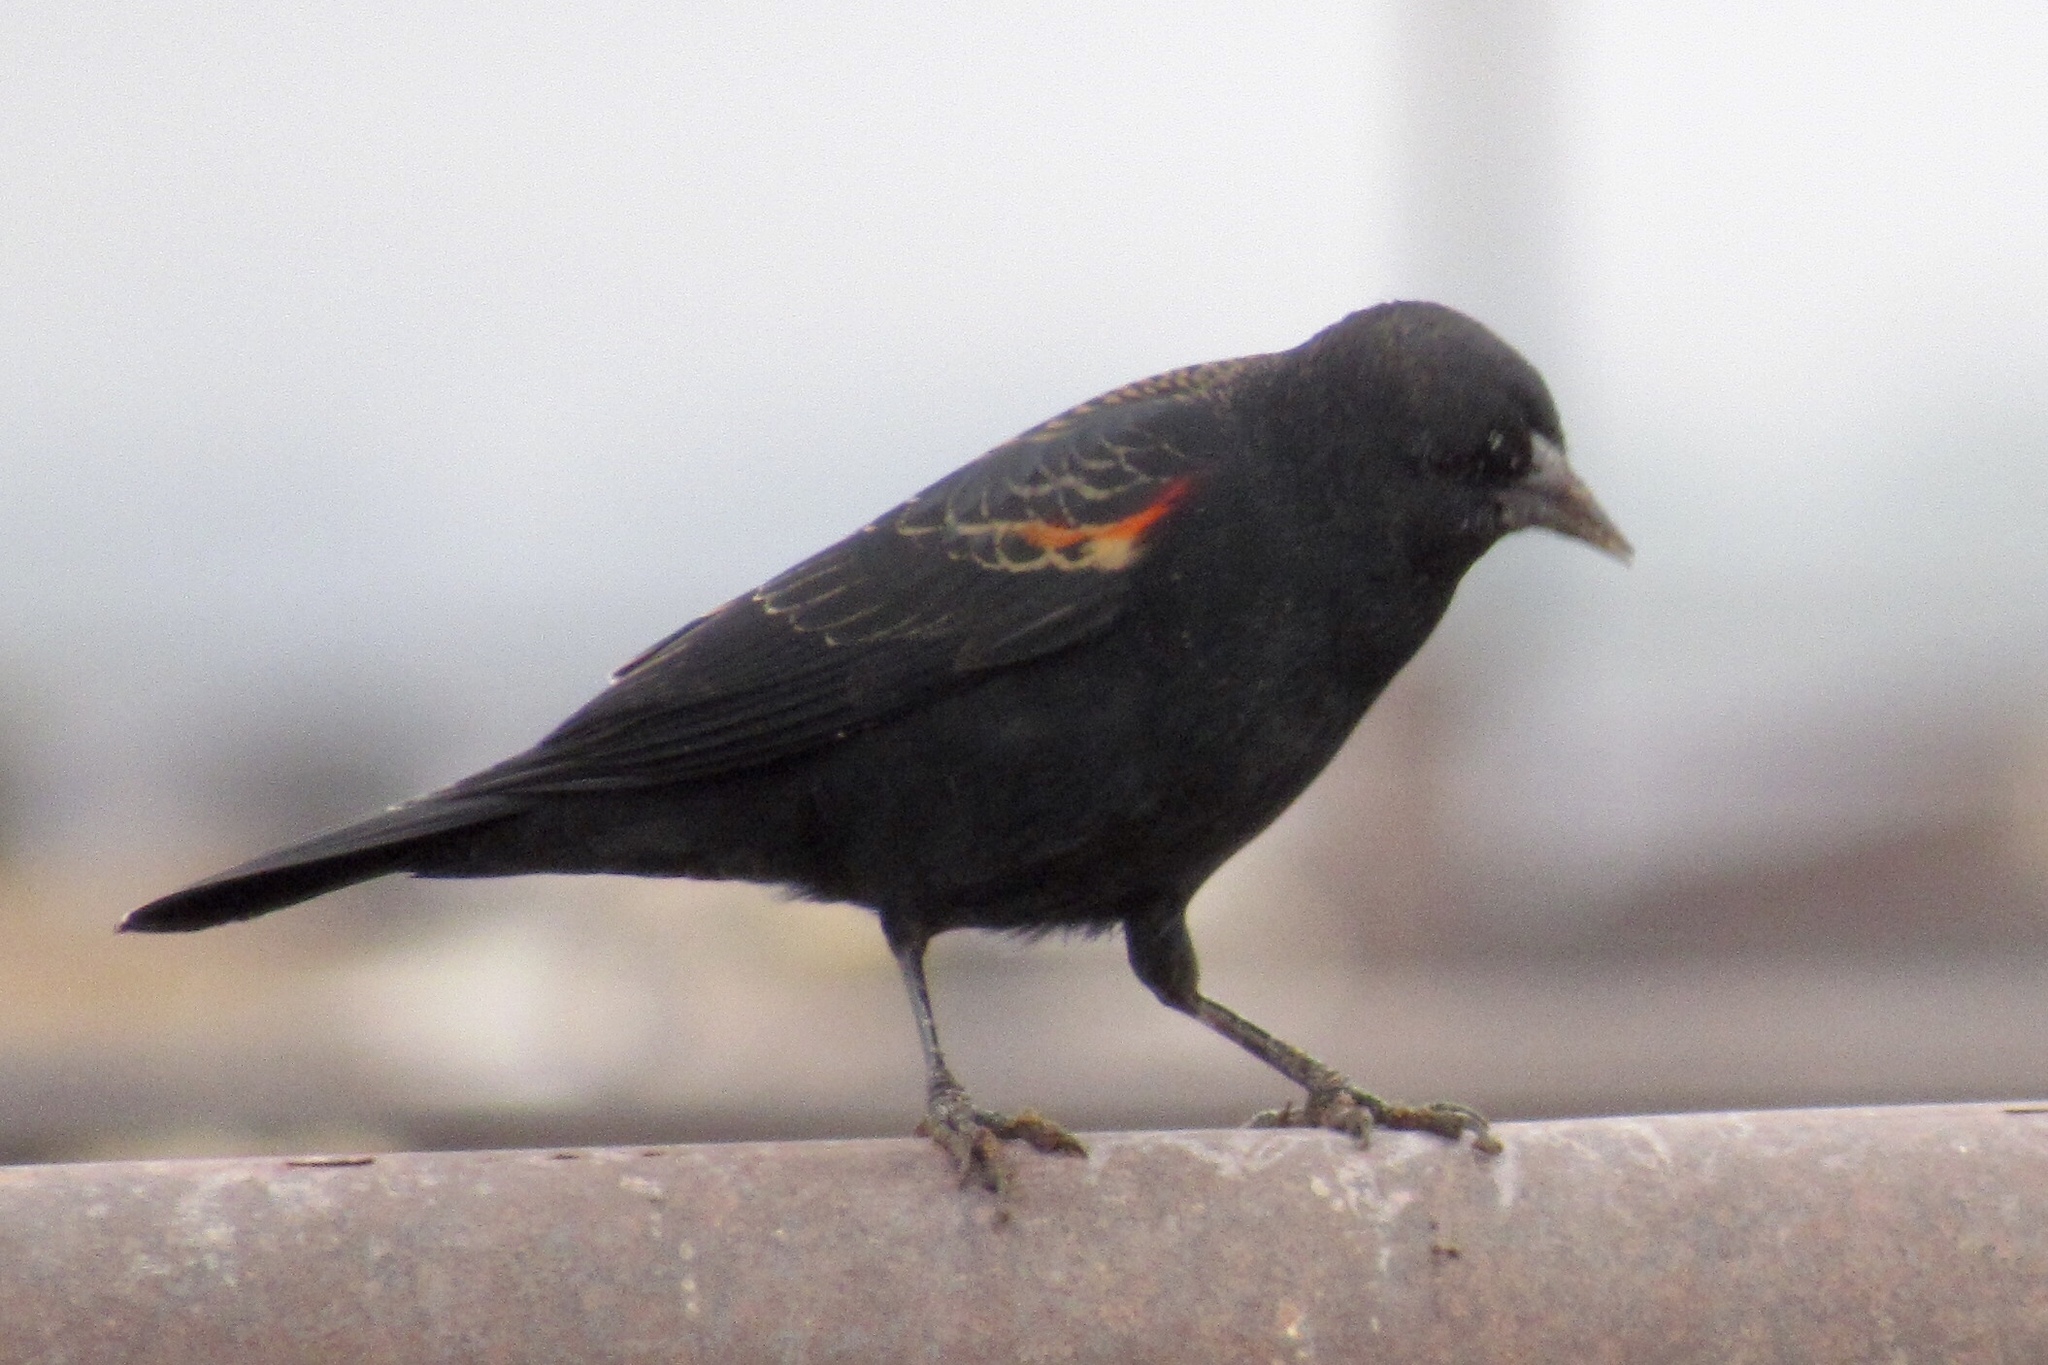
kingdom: Animalia
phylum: Chordata
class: Aves
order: Passeriformes
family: Icteridae
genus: Agelaius
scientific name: Agelaius phoeniceus
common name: Red-winged blackbird
